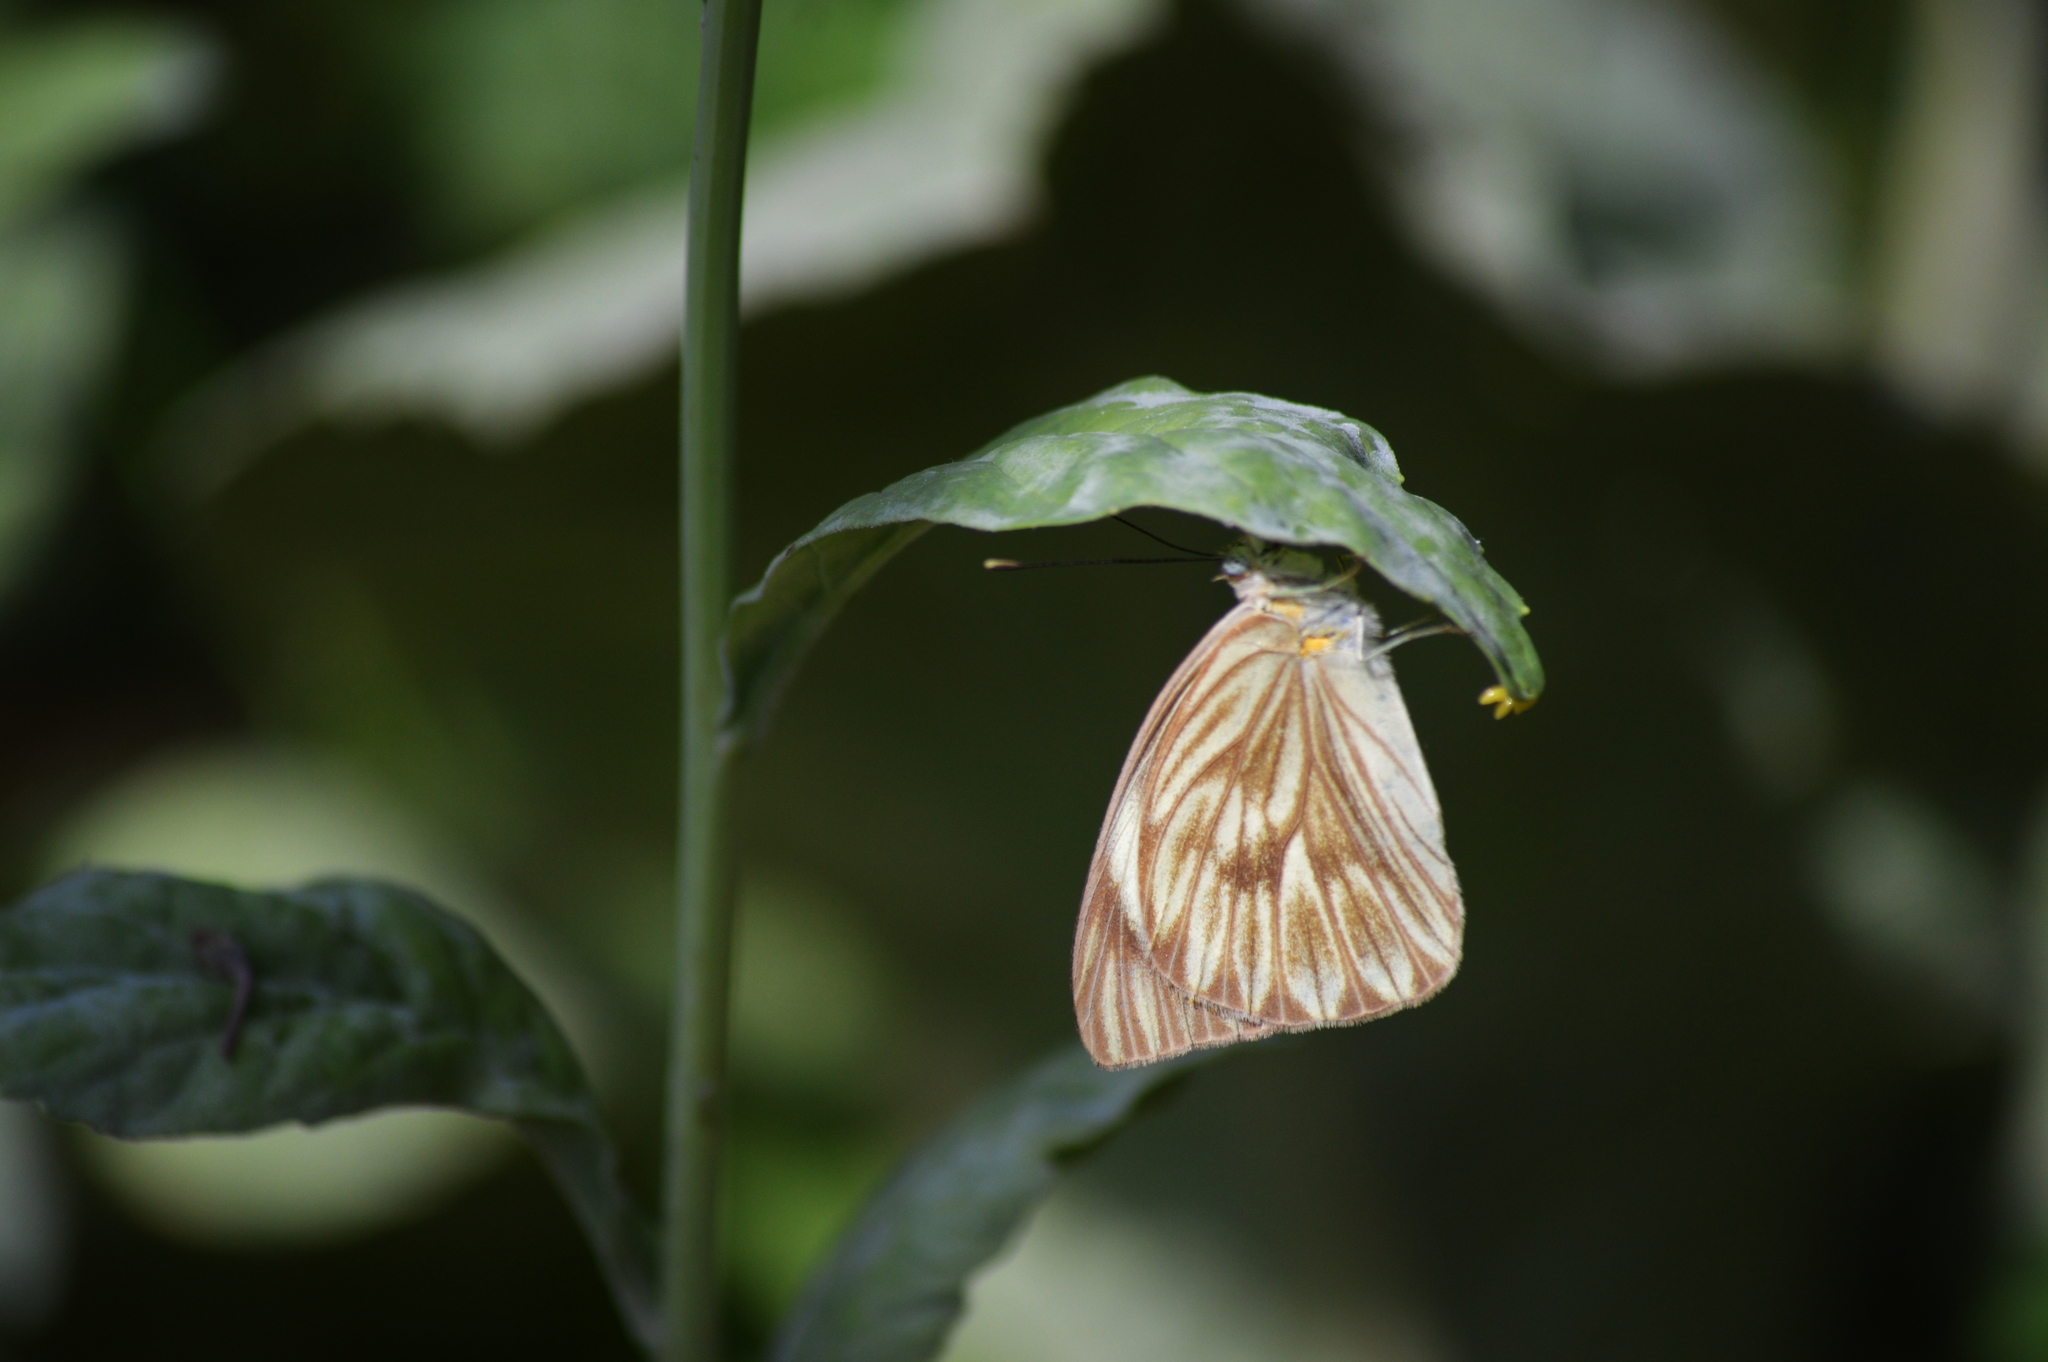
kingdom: Animalia
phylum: Arthropoda
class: Insecta
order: Lepidoptera
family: Pieridae
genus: Ascia
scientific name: Ascia monuste
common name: Great southern white
